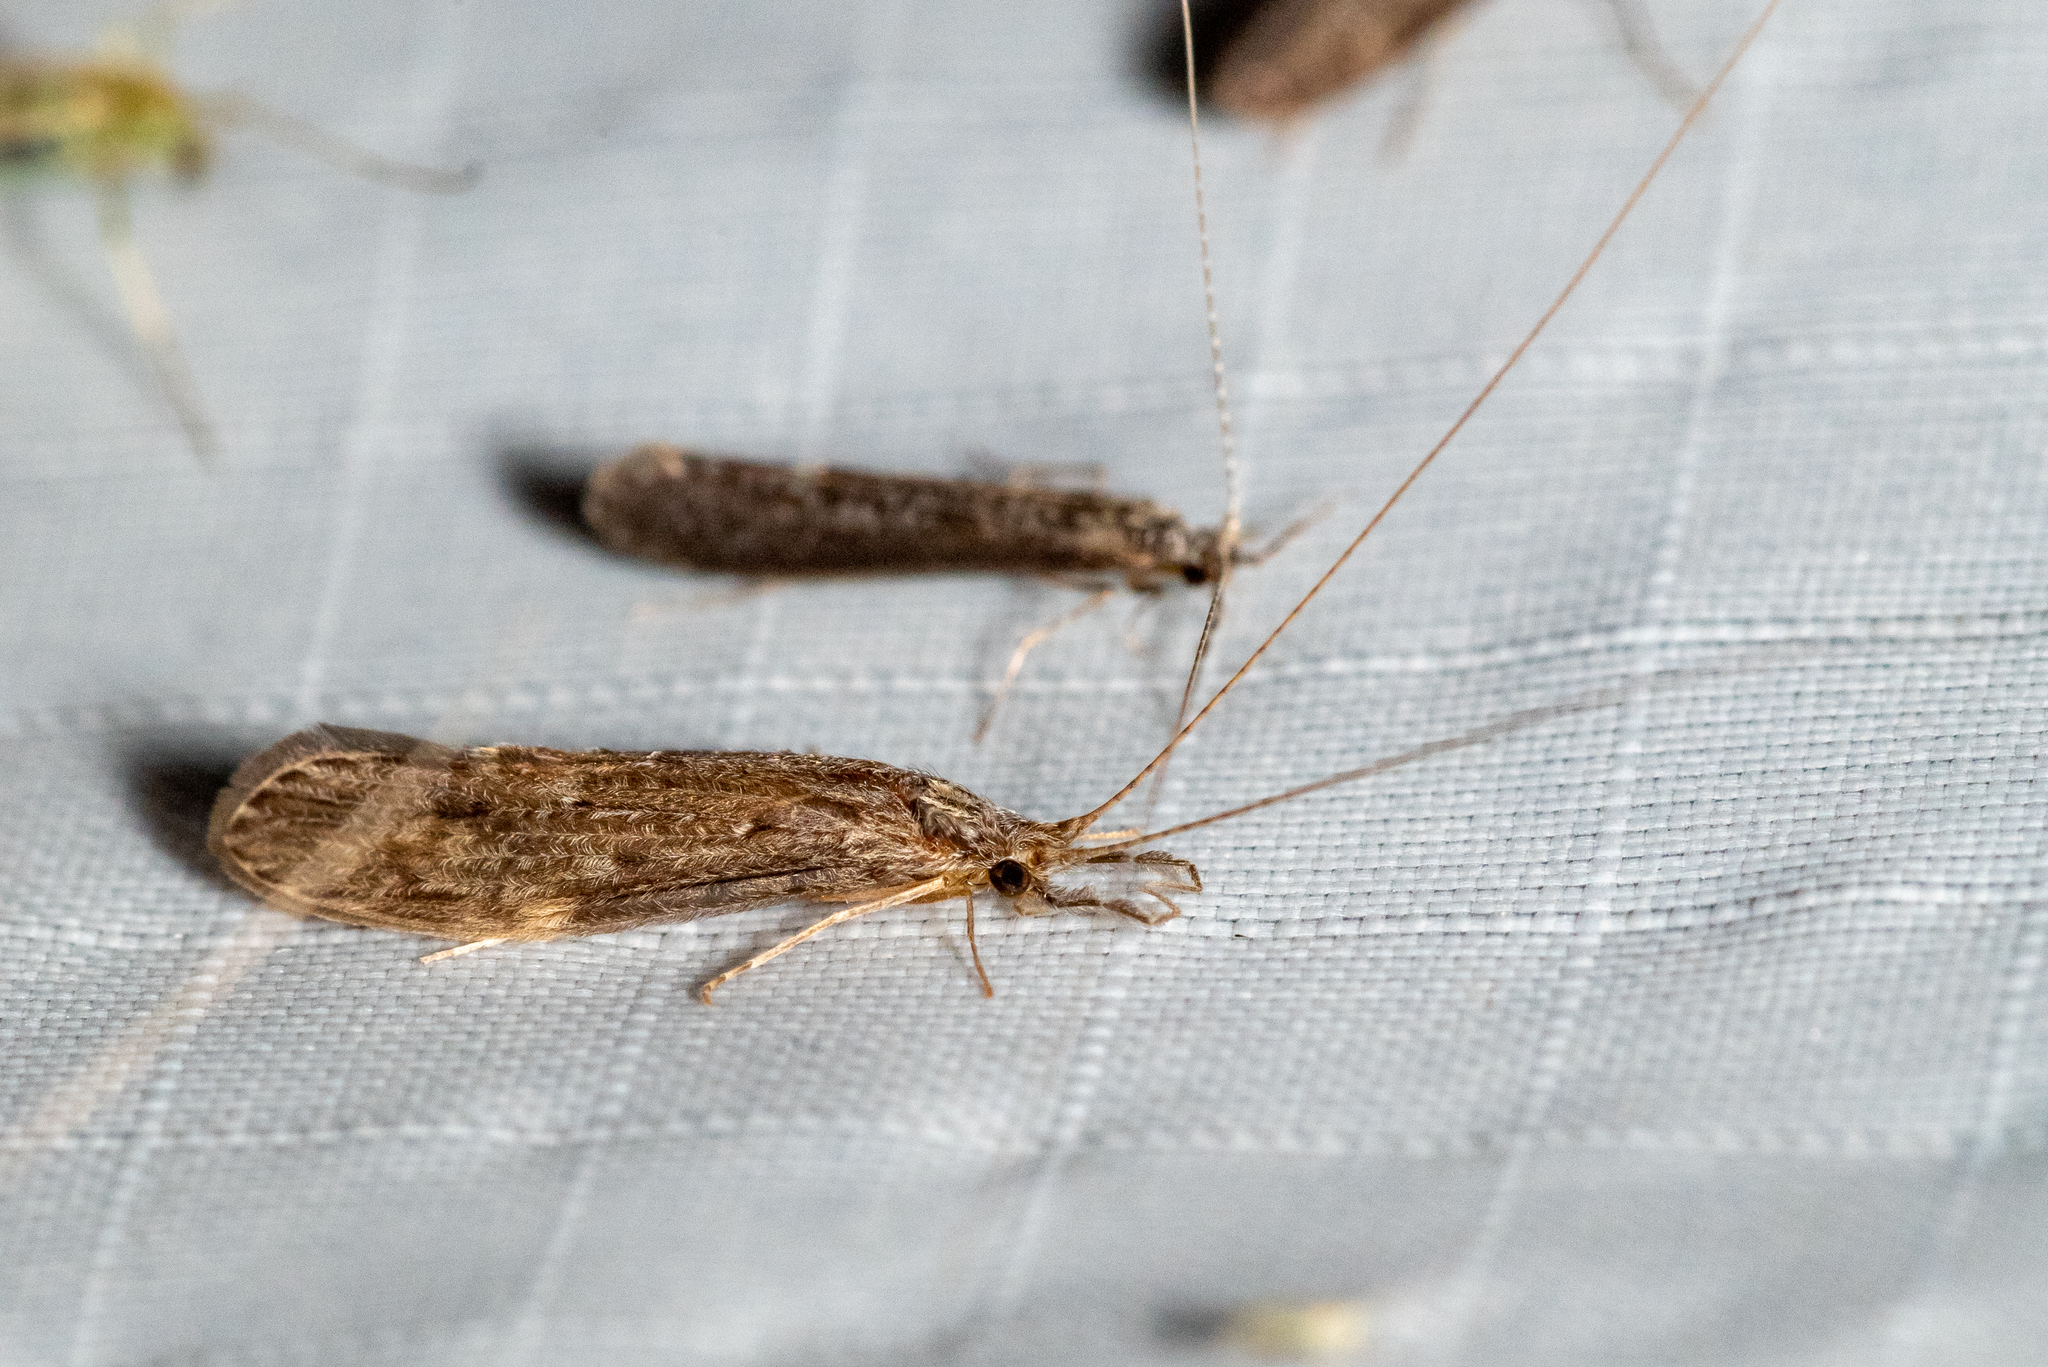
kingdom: Animalia
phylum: Arthropoda
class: Insecta
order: Trichoptera
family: Leptoceridae
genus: Oecetis
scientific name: Oecetis cinerascens
